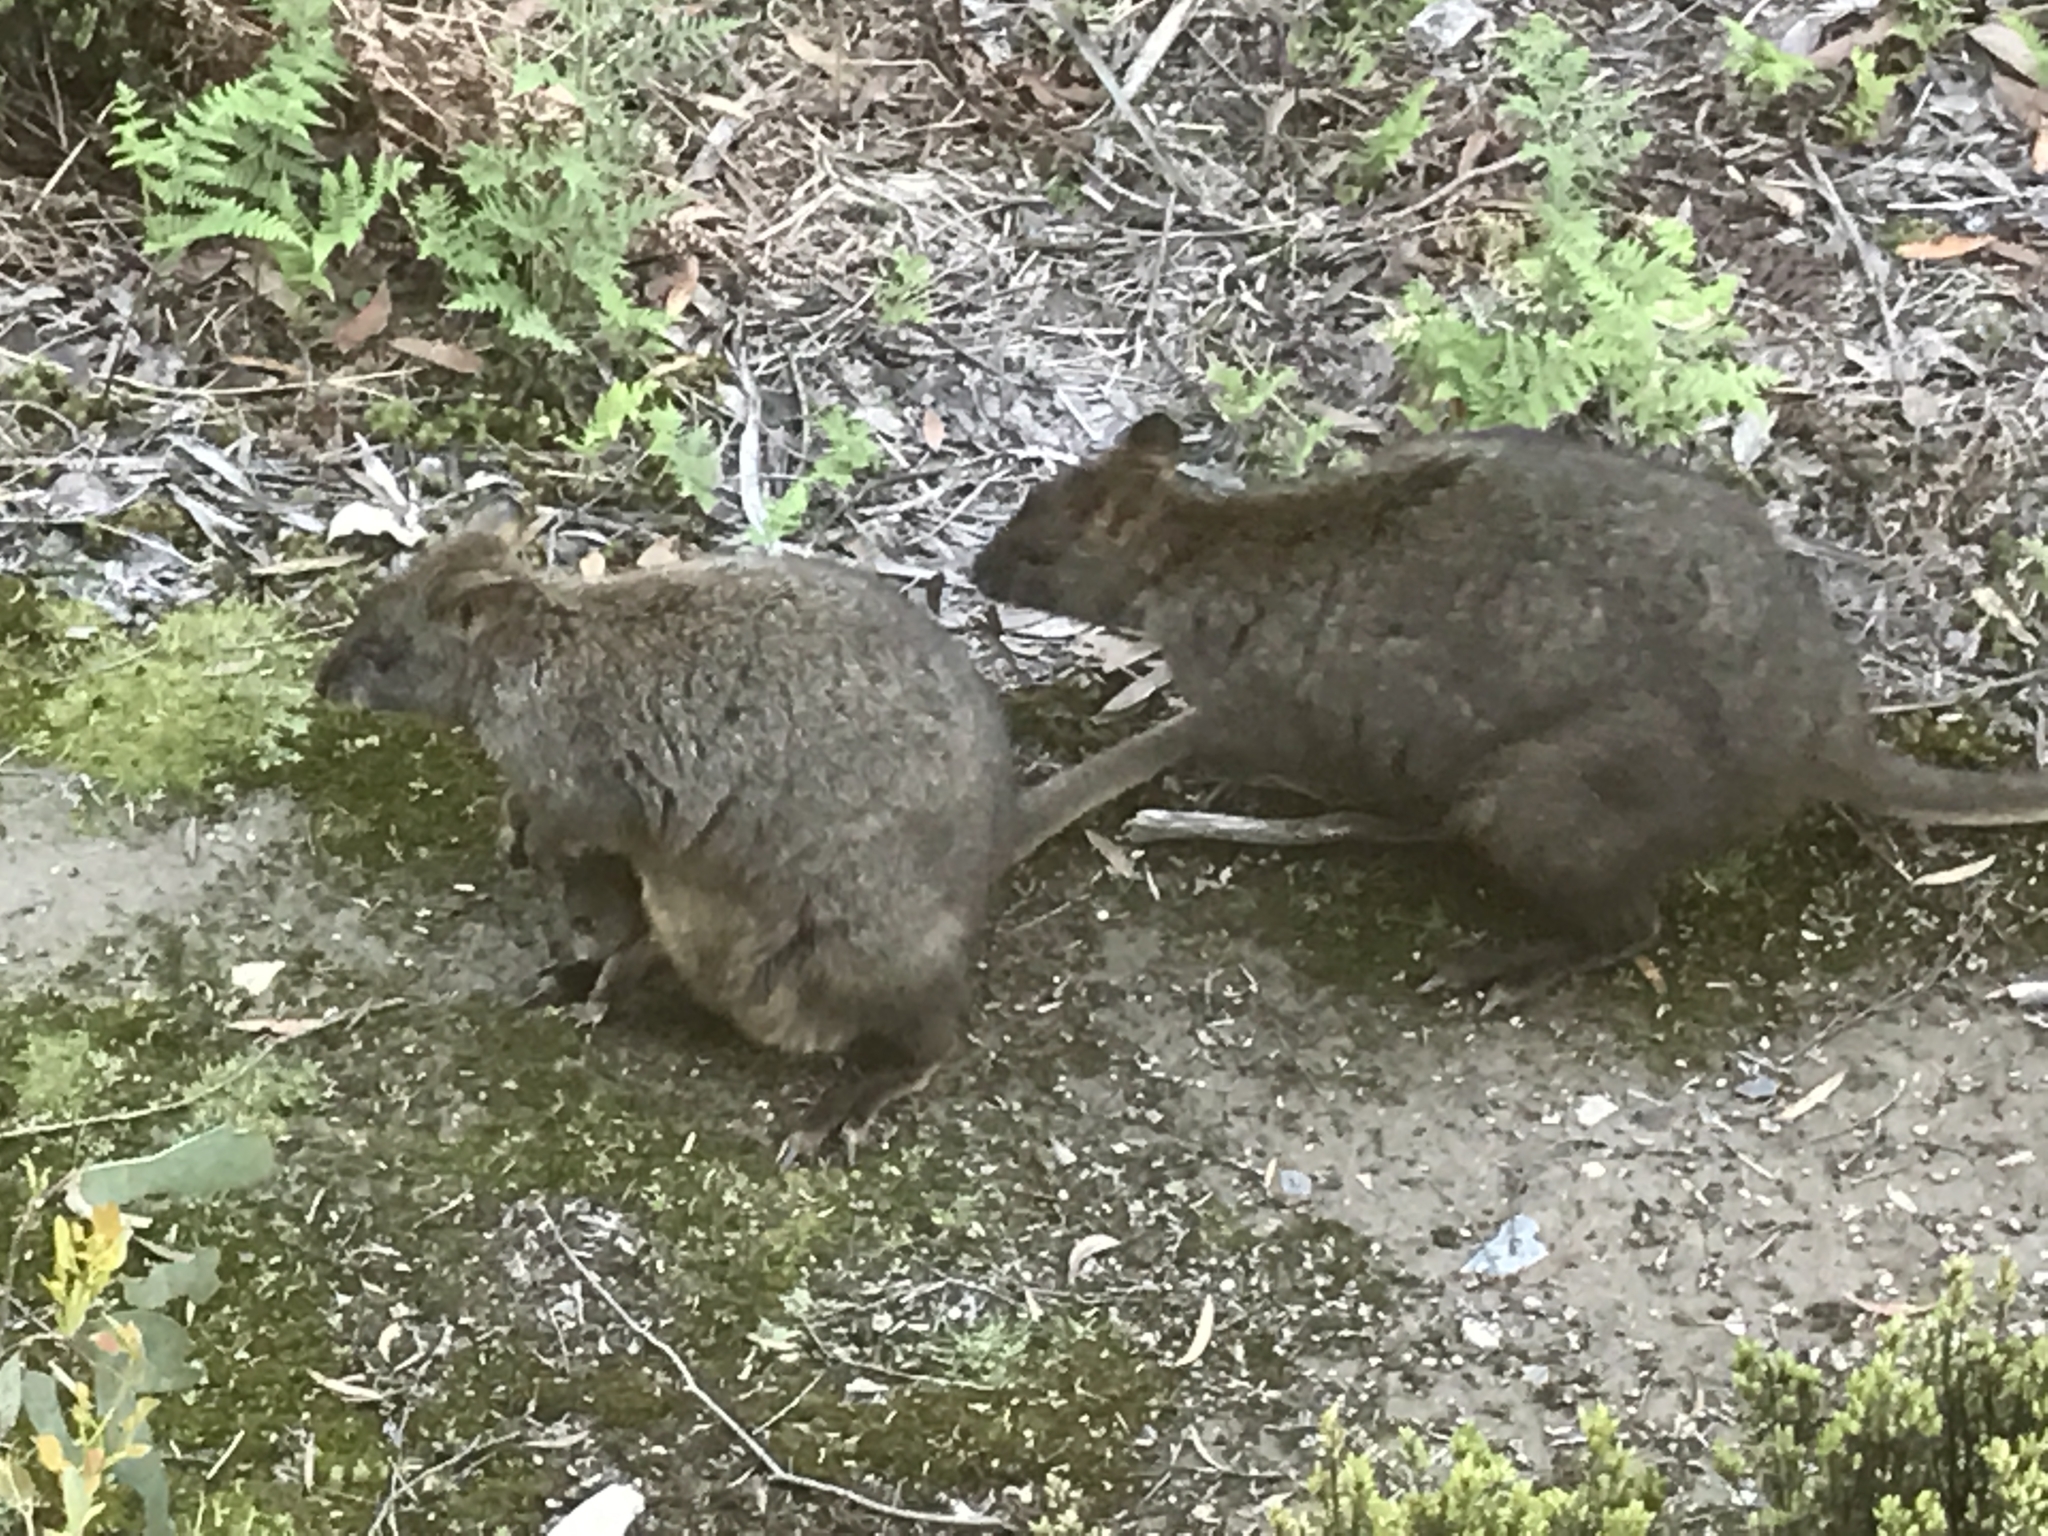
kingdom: Animalia
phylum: Chordata
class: Mammalia
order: Diprotodontia
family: Macropodidae
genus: Thylogale
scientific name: Thylogale billardierii
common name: Tasmanian pademelon
